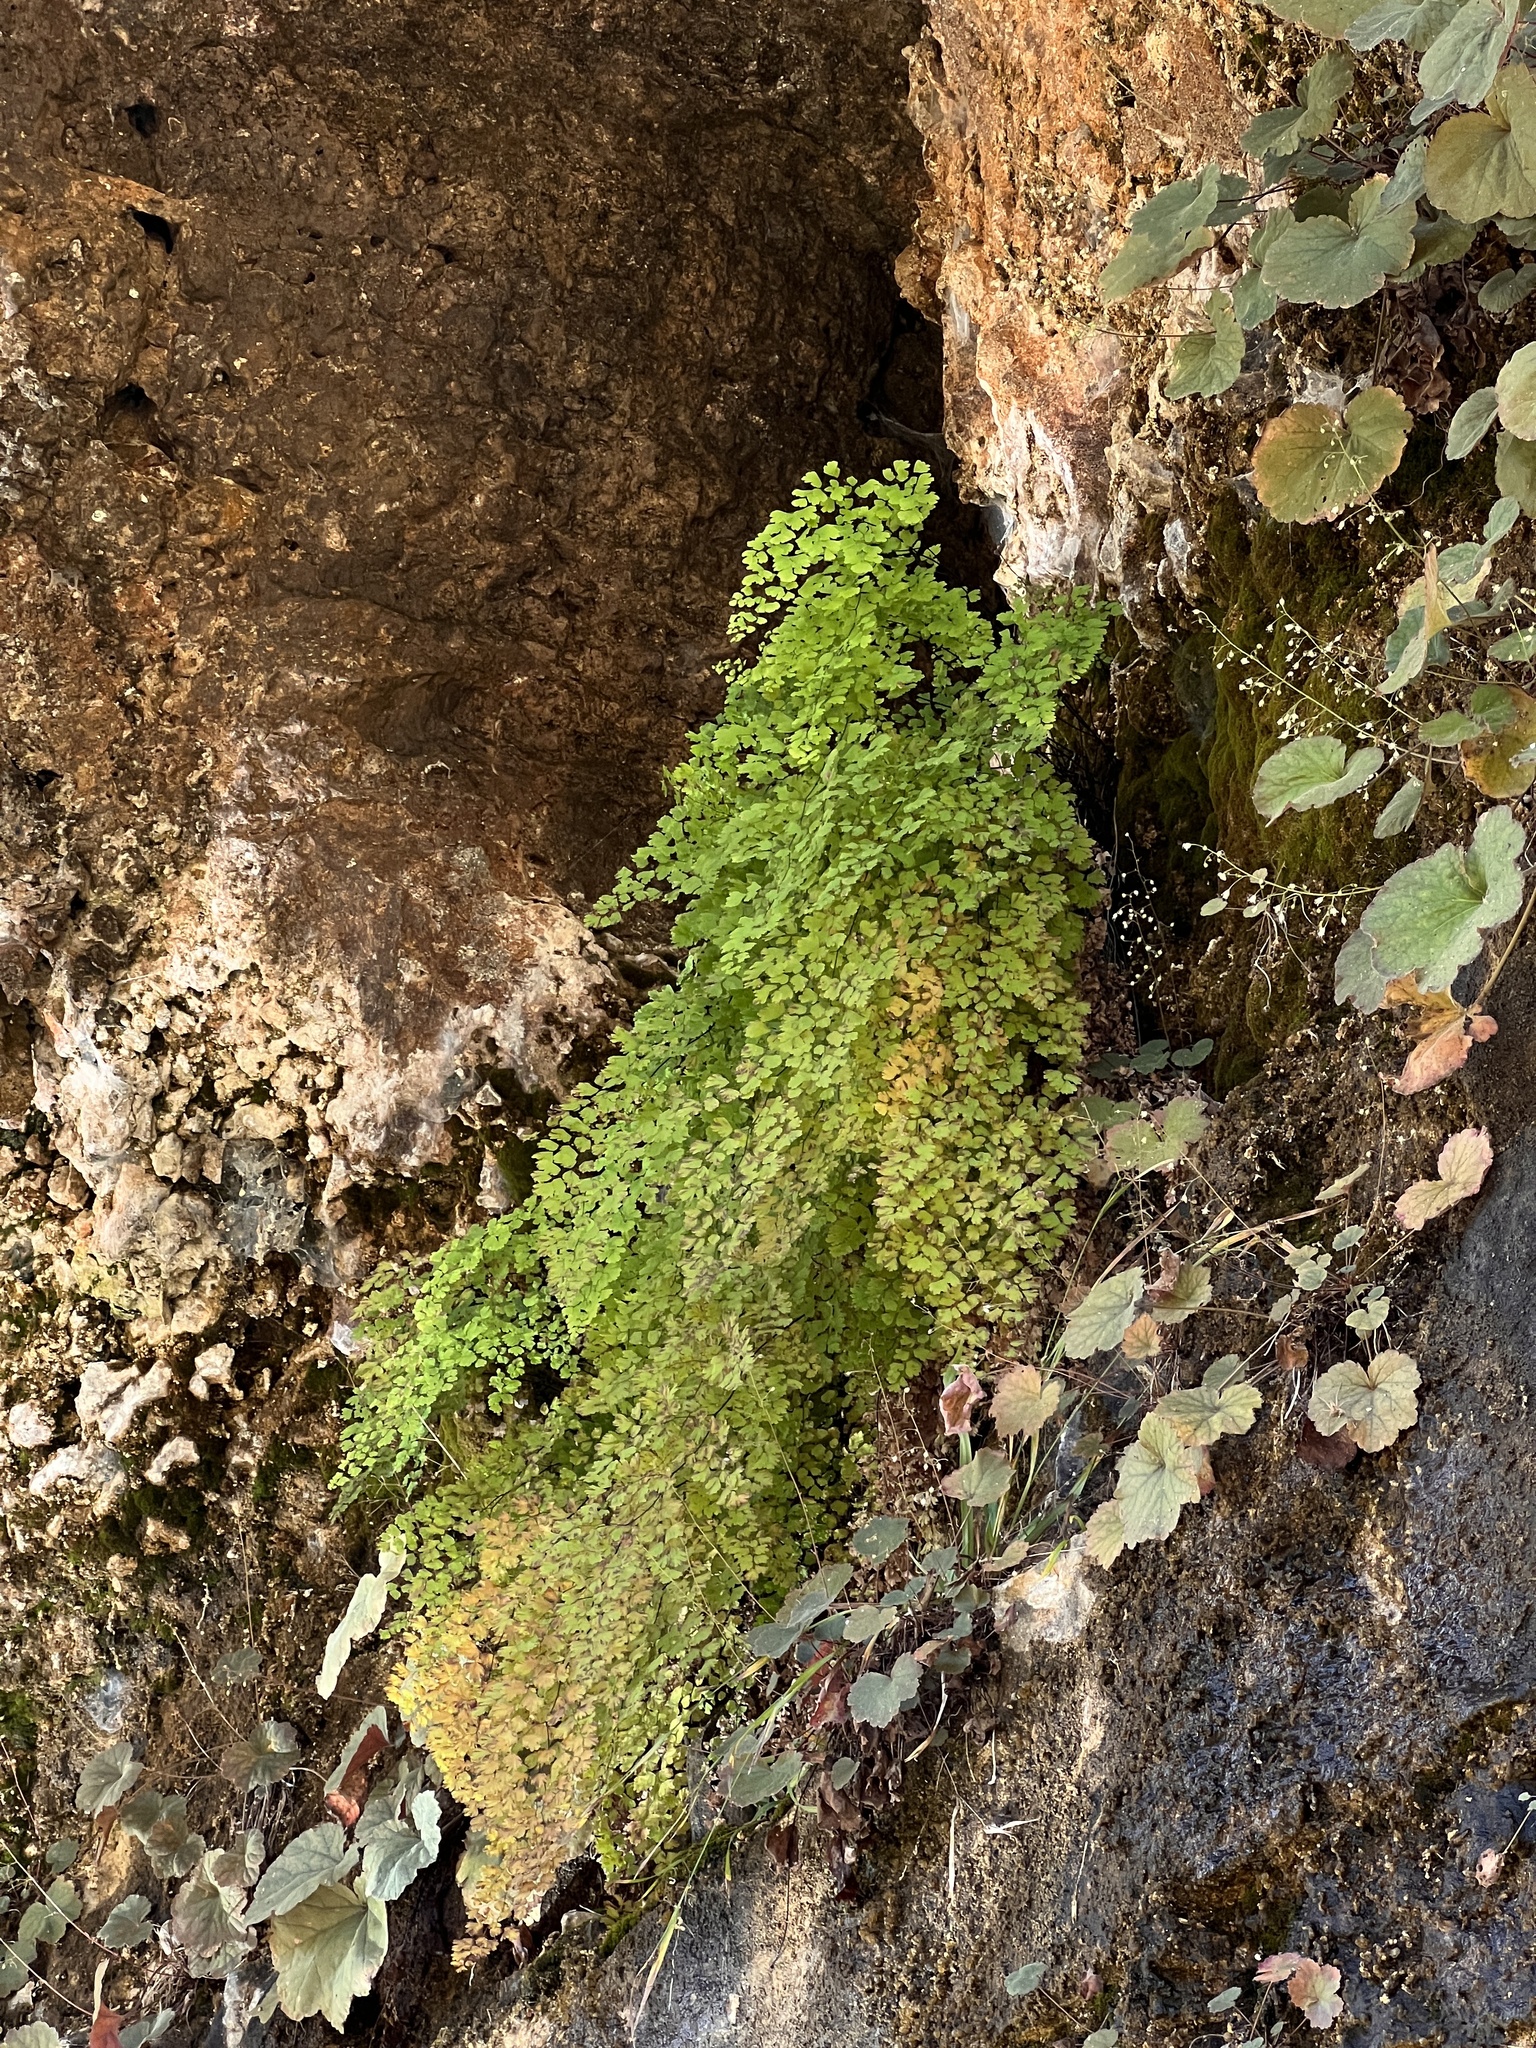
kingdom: Plantae
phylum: Tracheophyta
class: Polypodiopsida
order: Polypodiales
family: Pteridaceae
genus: Adiantum
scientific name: Adiantum capillus-veneris
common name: Maidenhair fern
